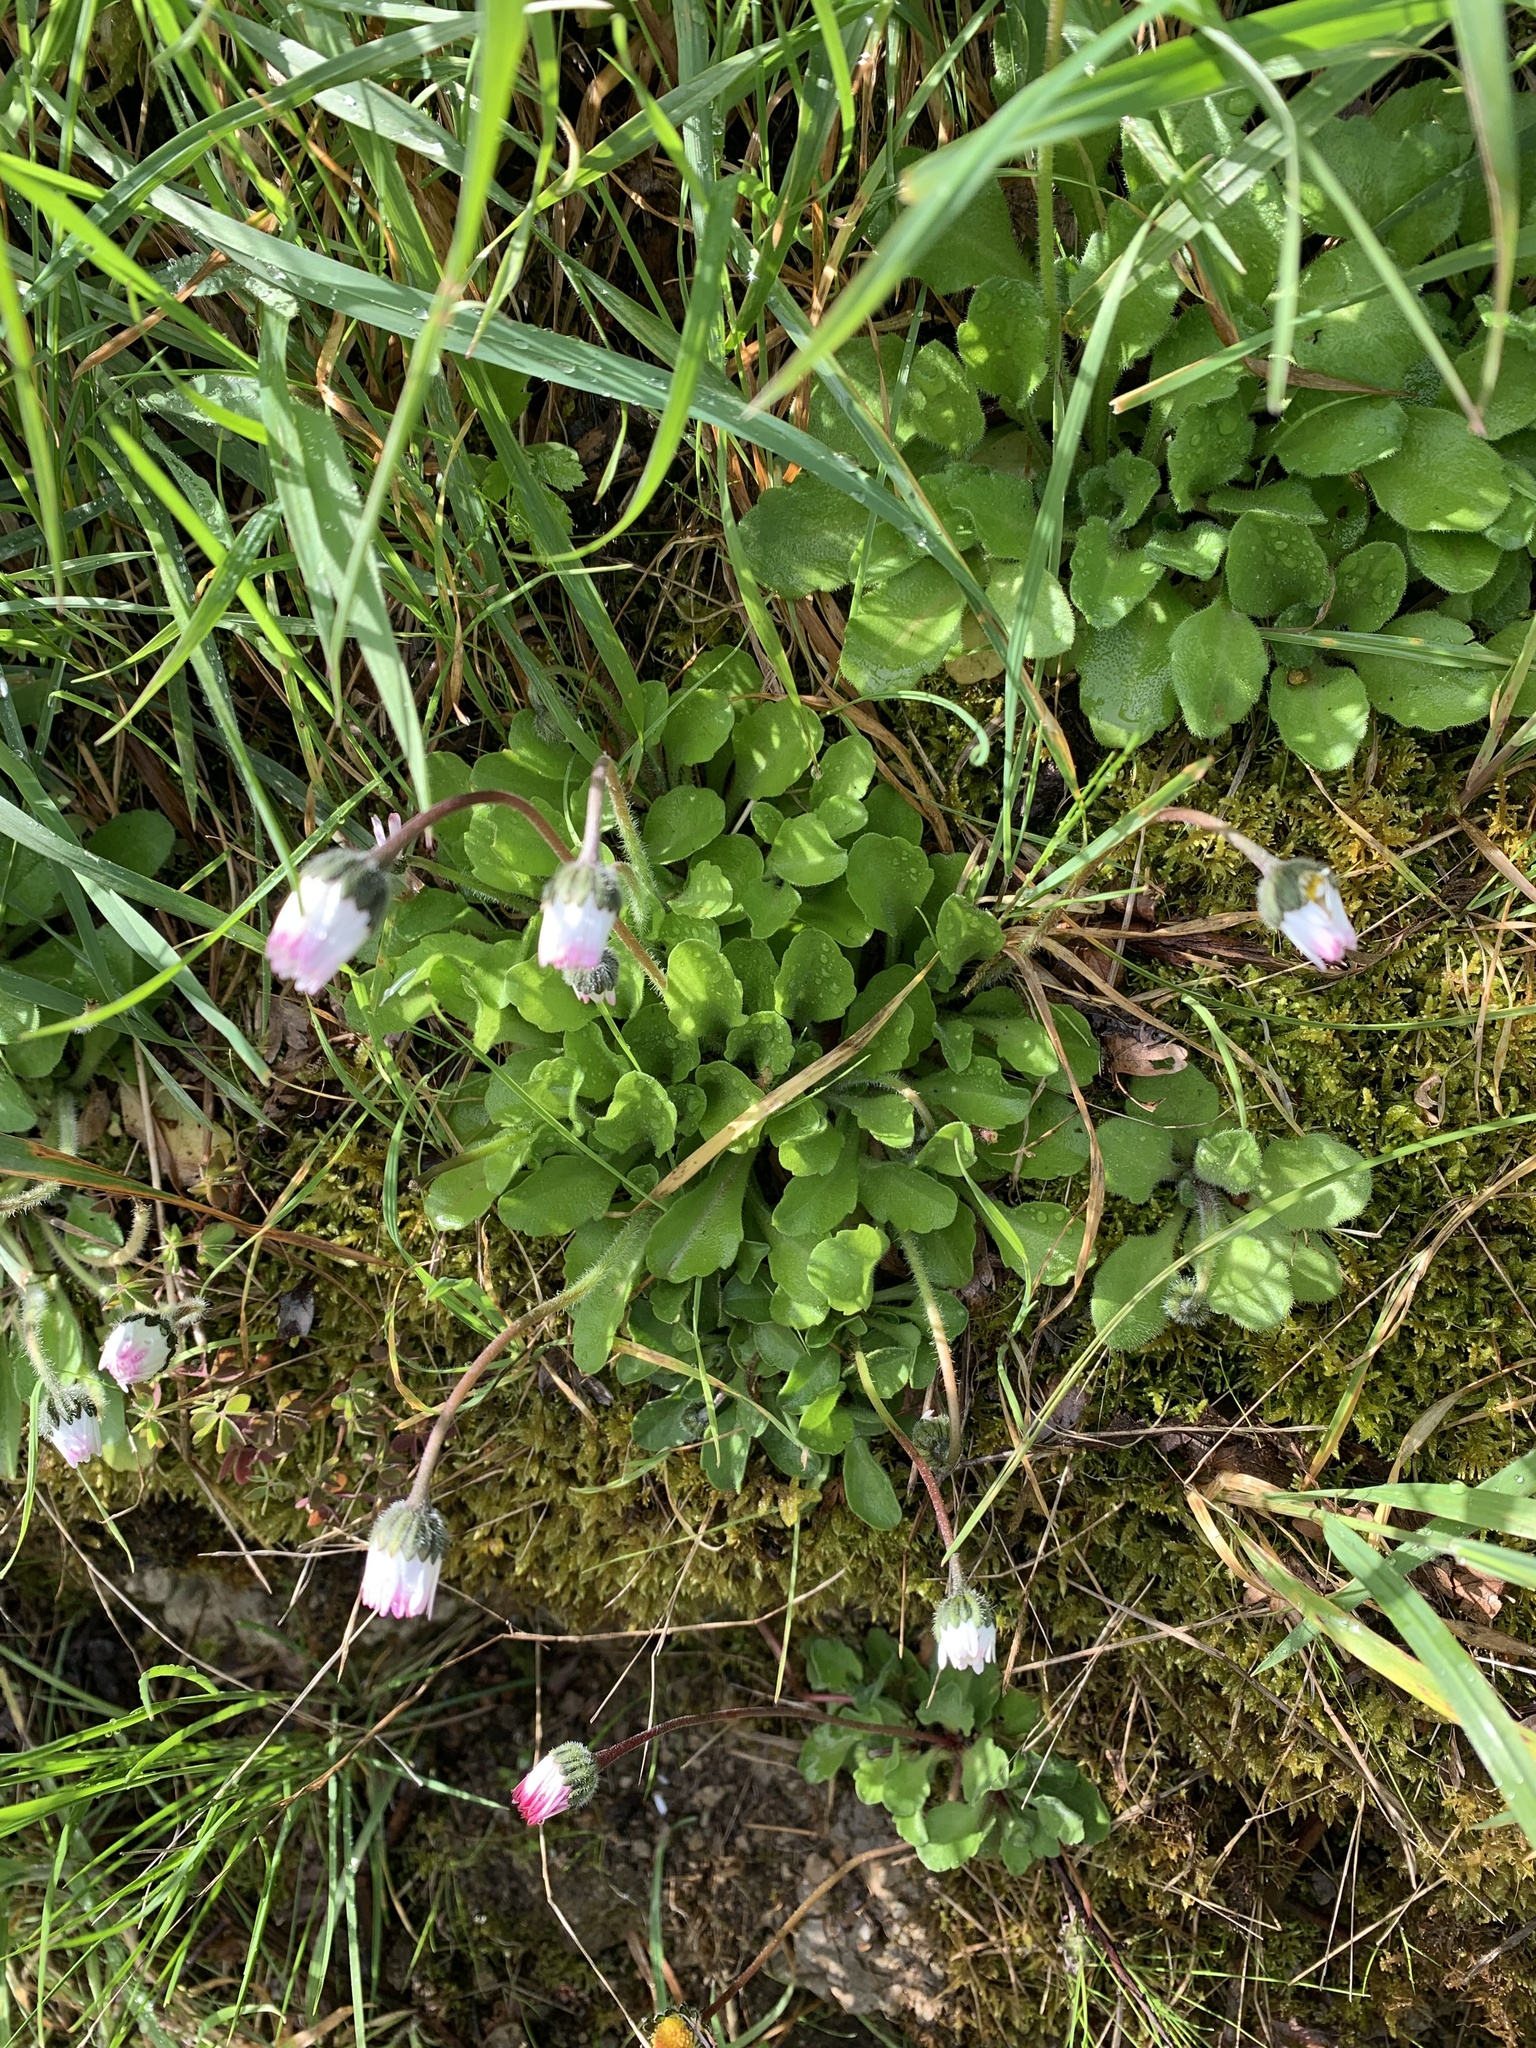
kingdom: Plantae
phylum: Tracheophyta
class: Magnoliopsida
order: Asterales
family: Asteraceae
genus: Bellis
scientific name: Bellis perennis
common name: Lawndaisy
